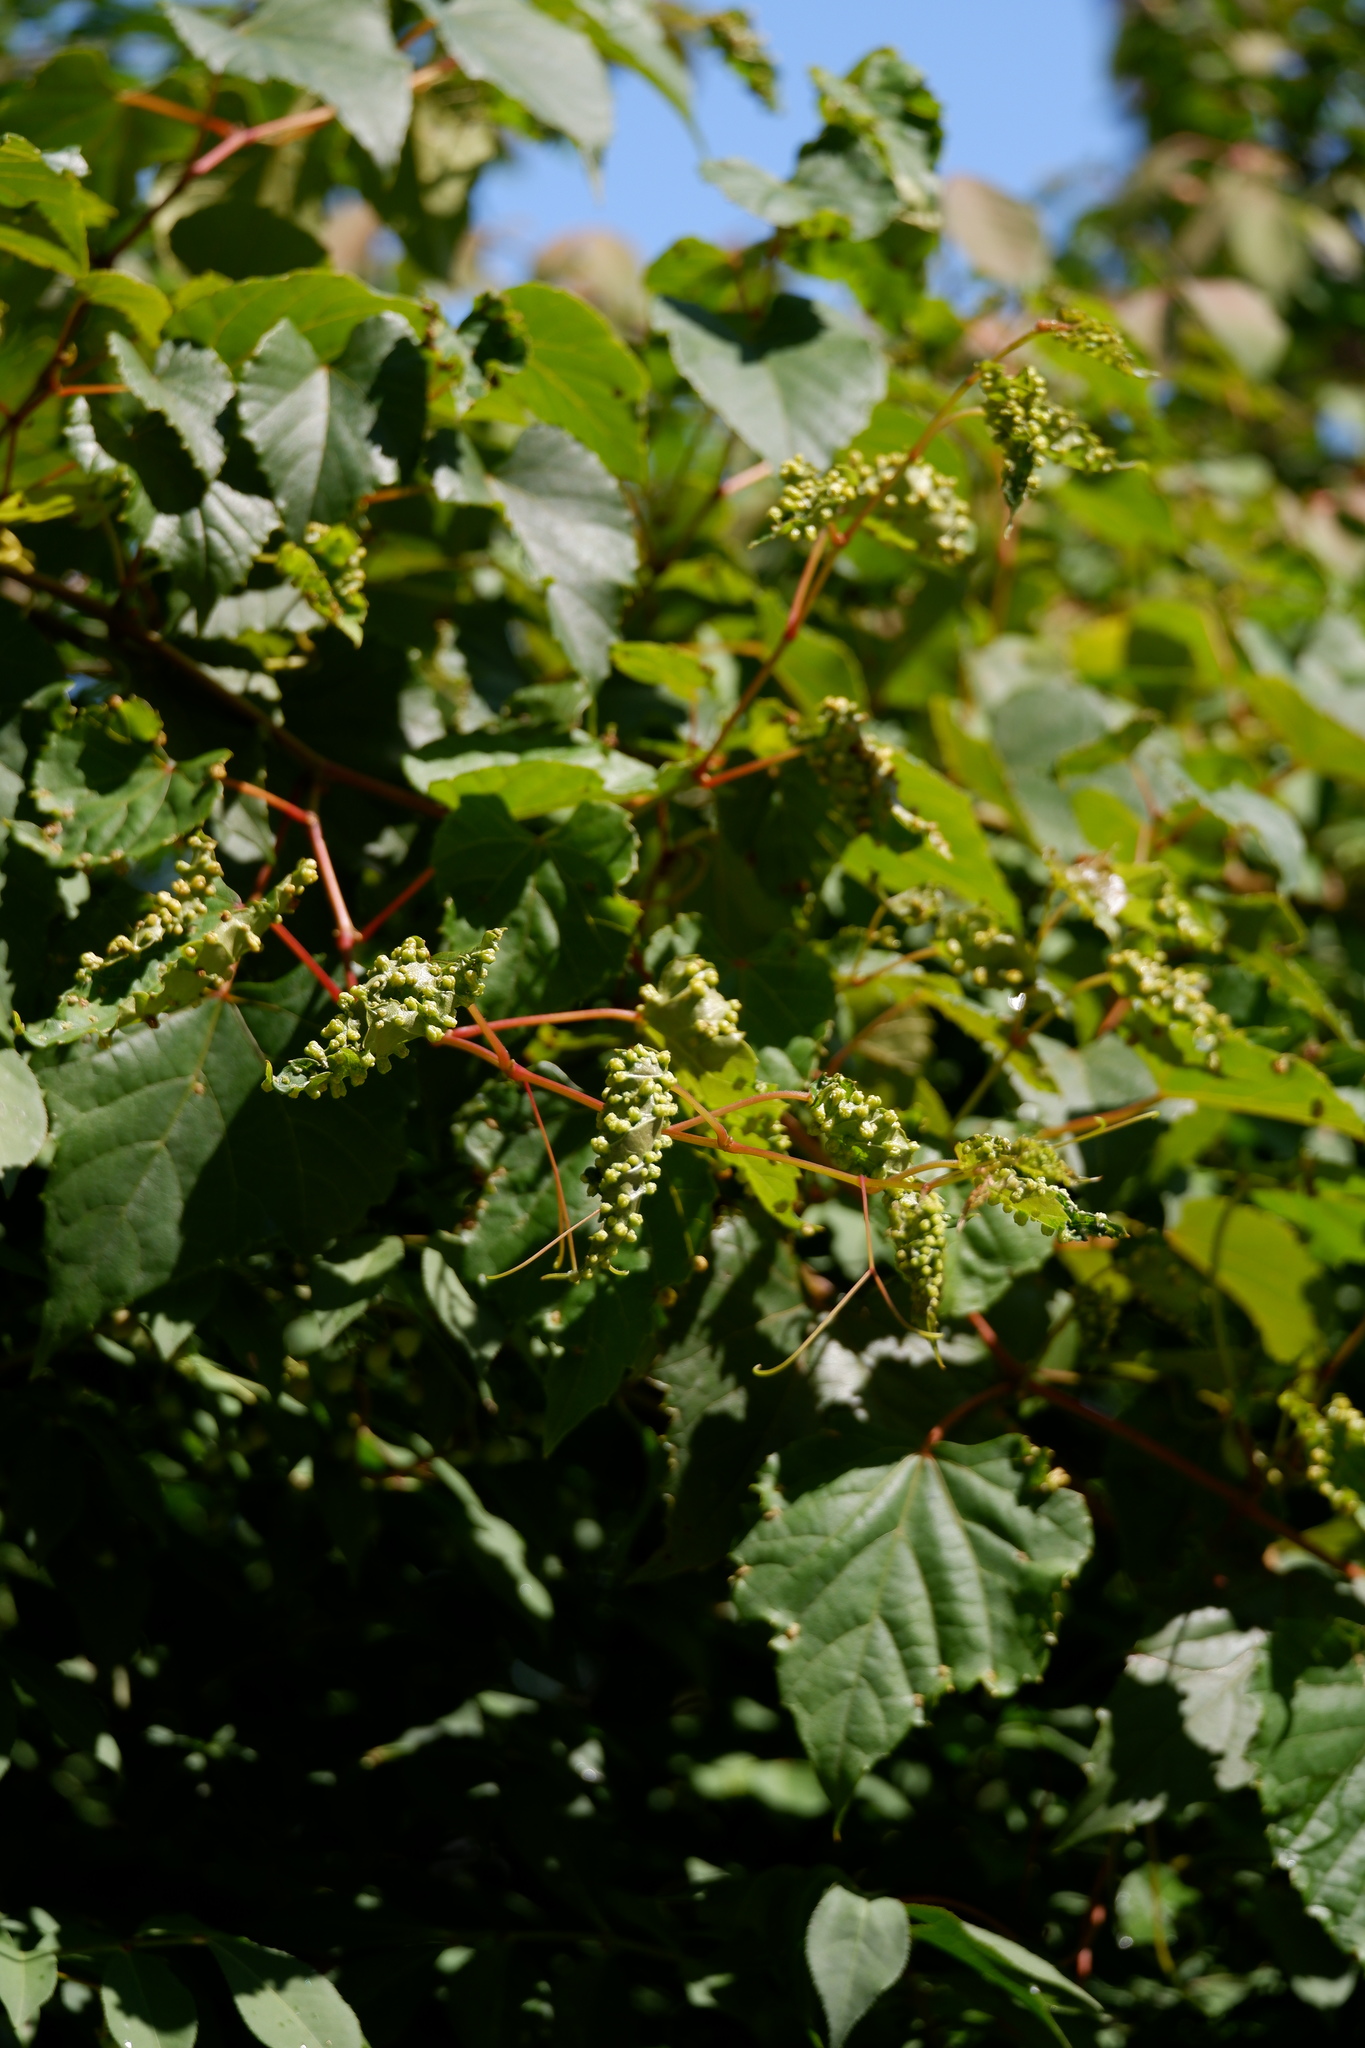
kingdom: Animalia
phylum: Arthropoda
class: Insecta
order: Hemiptera
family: Phylloxeridae
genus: Daktulosphaira
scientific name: Daktulosphaira vitifoliae
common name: Grape phylloxera
